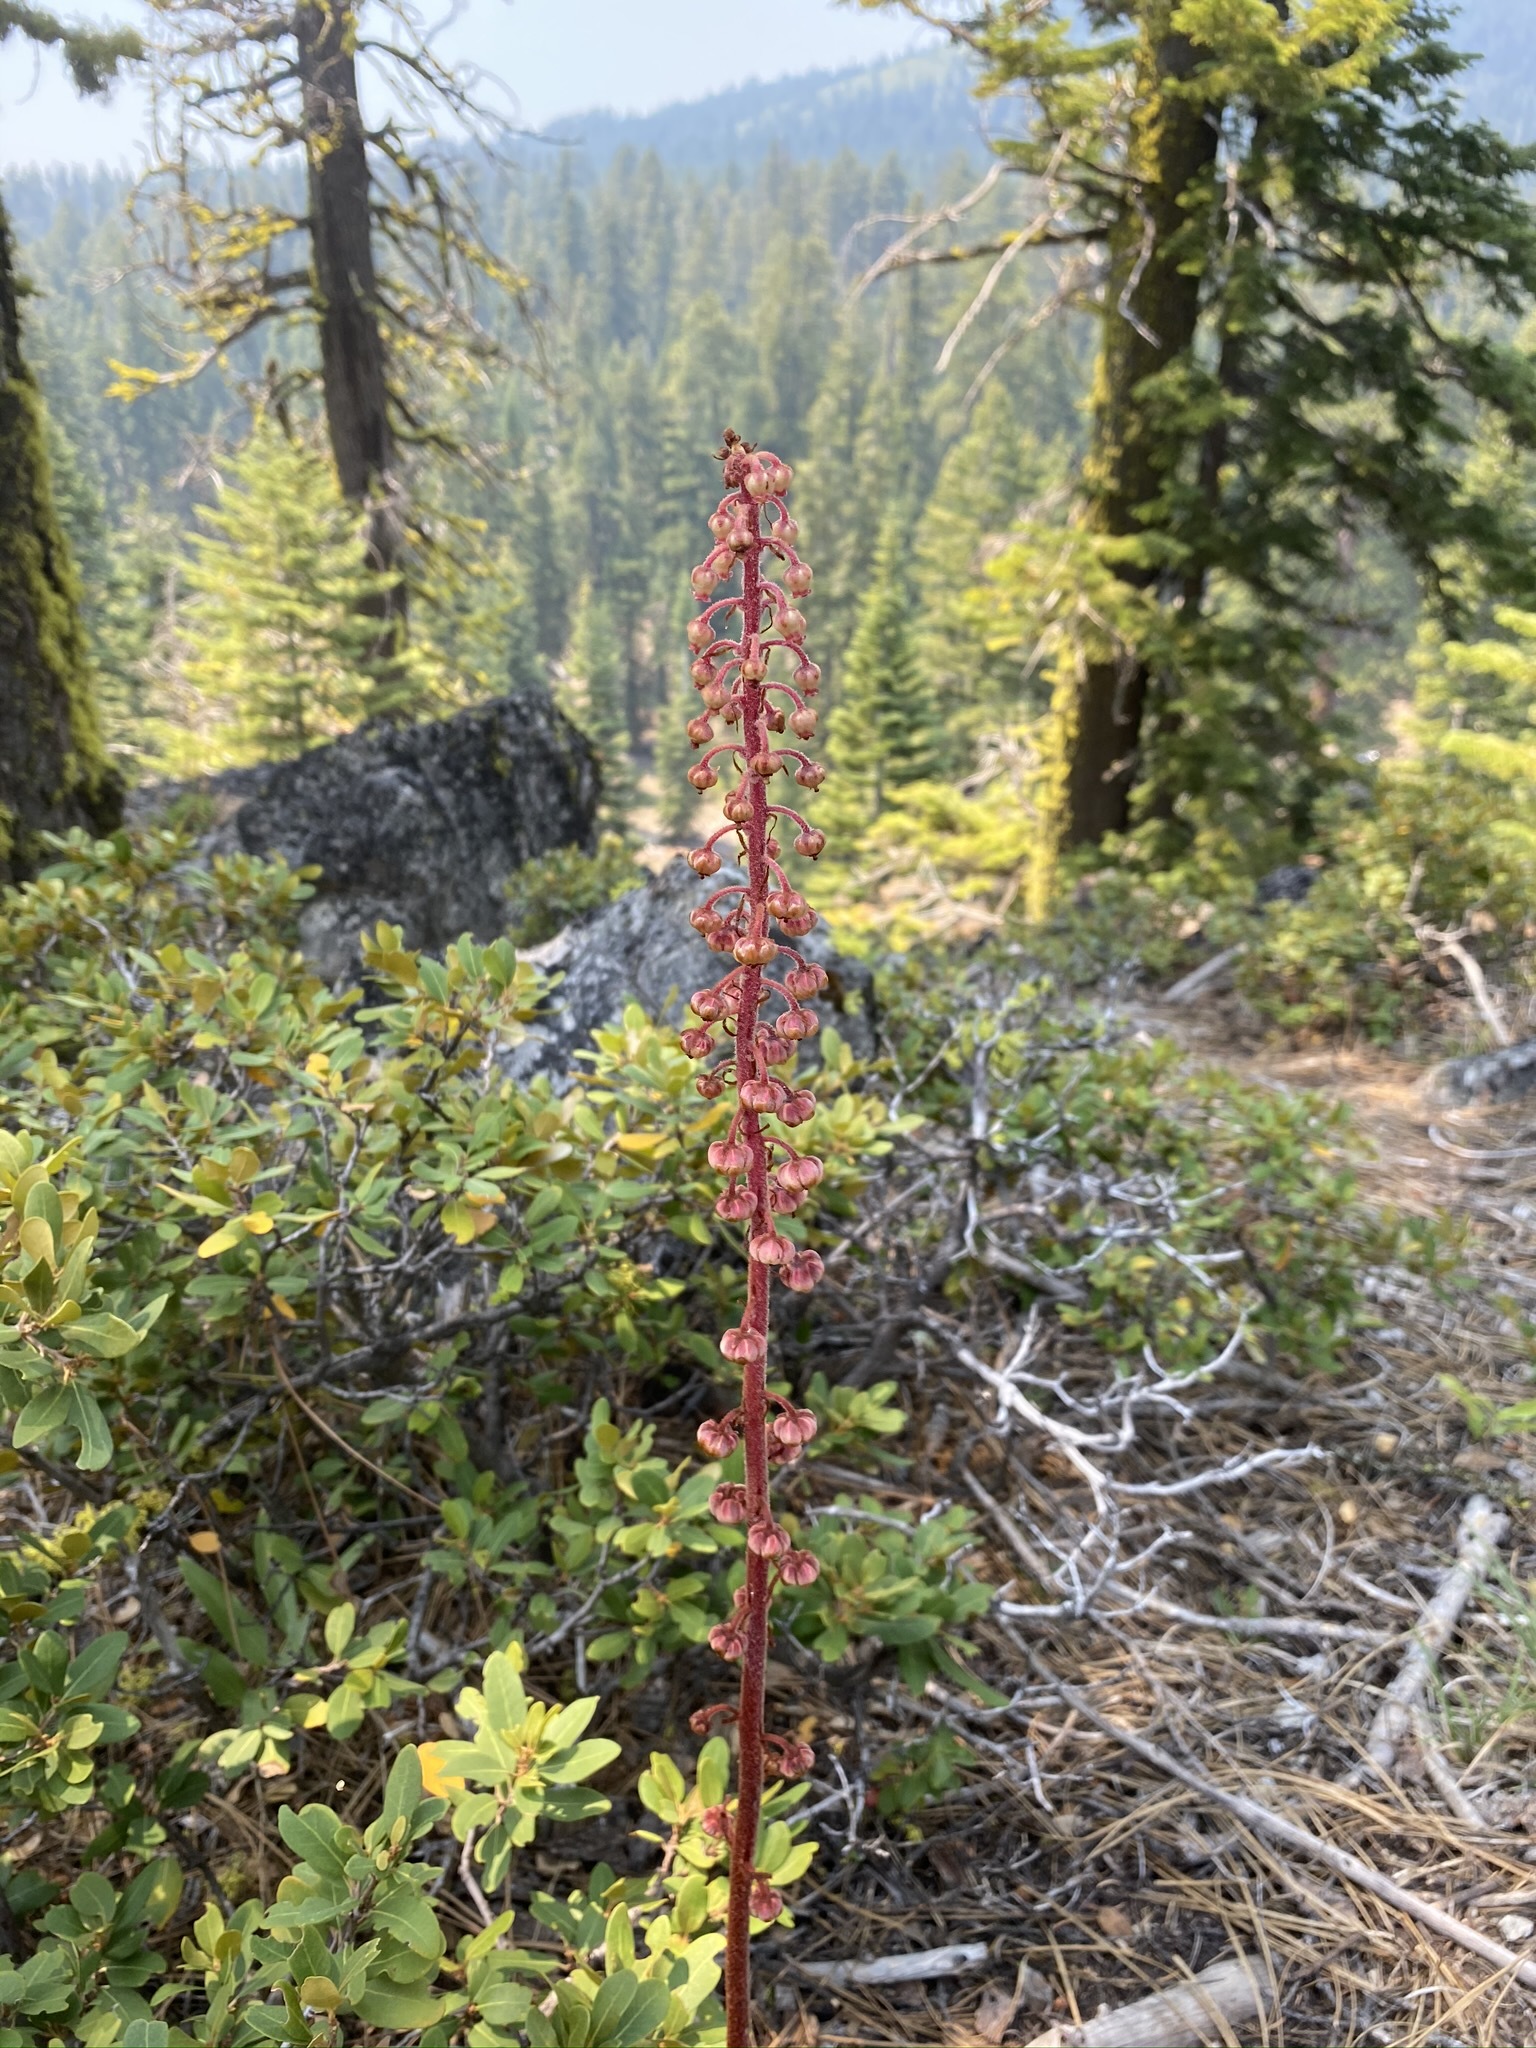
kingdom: Plantae
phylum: Tracheophyta
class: Magnoliopsida
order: Ericales
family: Ericaceae
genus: Pterospora
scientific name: Pterospora andromedea
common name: Giant bird's-nest
